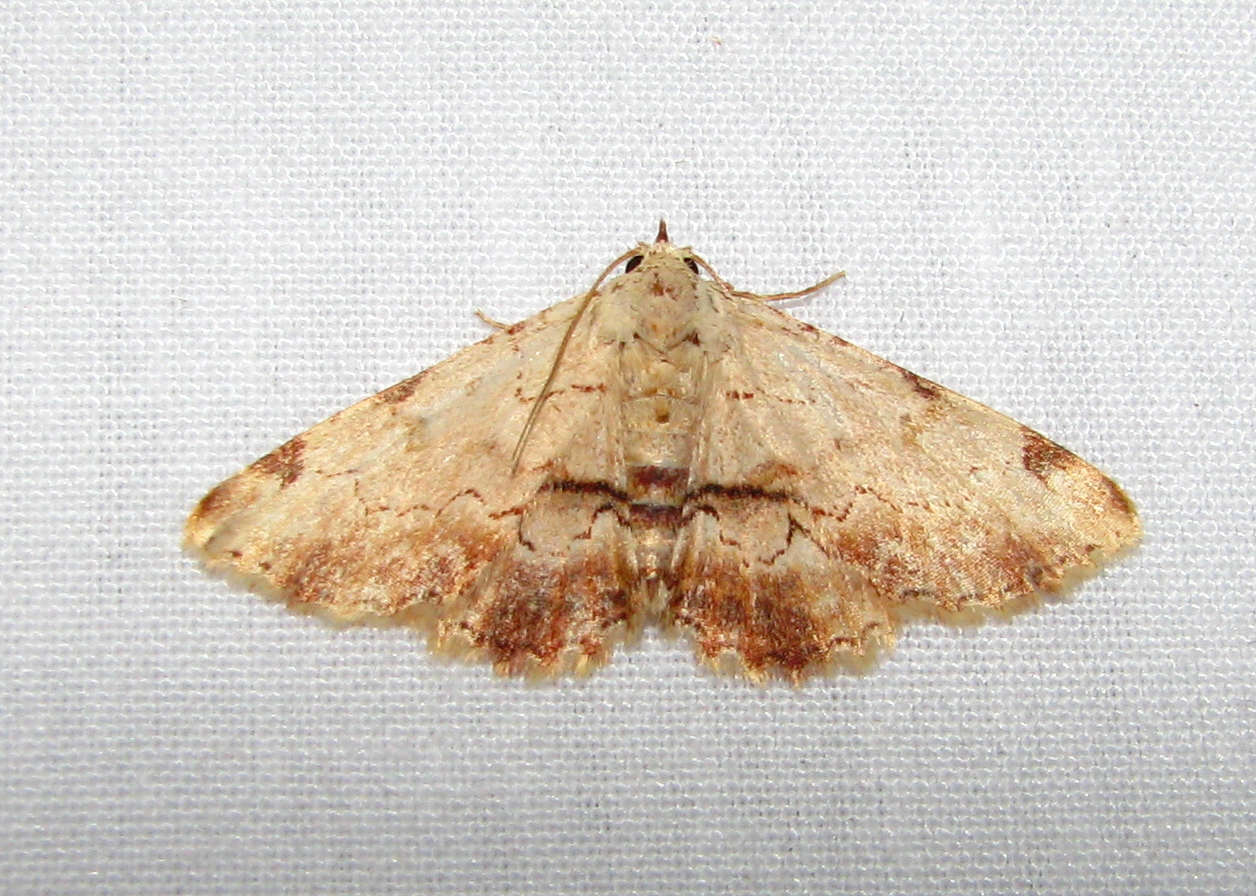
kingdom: Animalia
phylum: Arthropoda
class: Insecta
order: Lepidoptera
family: Erebidae
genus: Sandava
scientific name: Sandava xylistis
